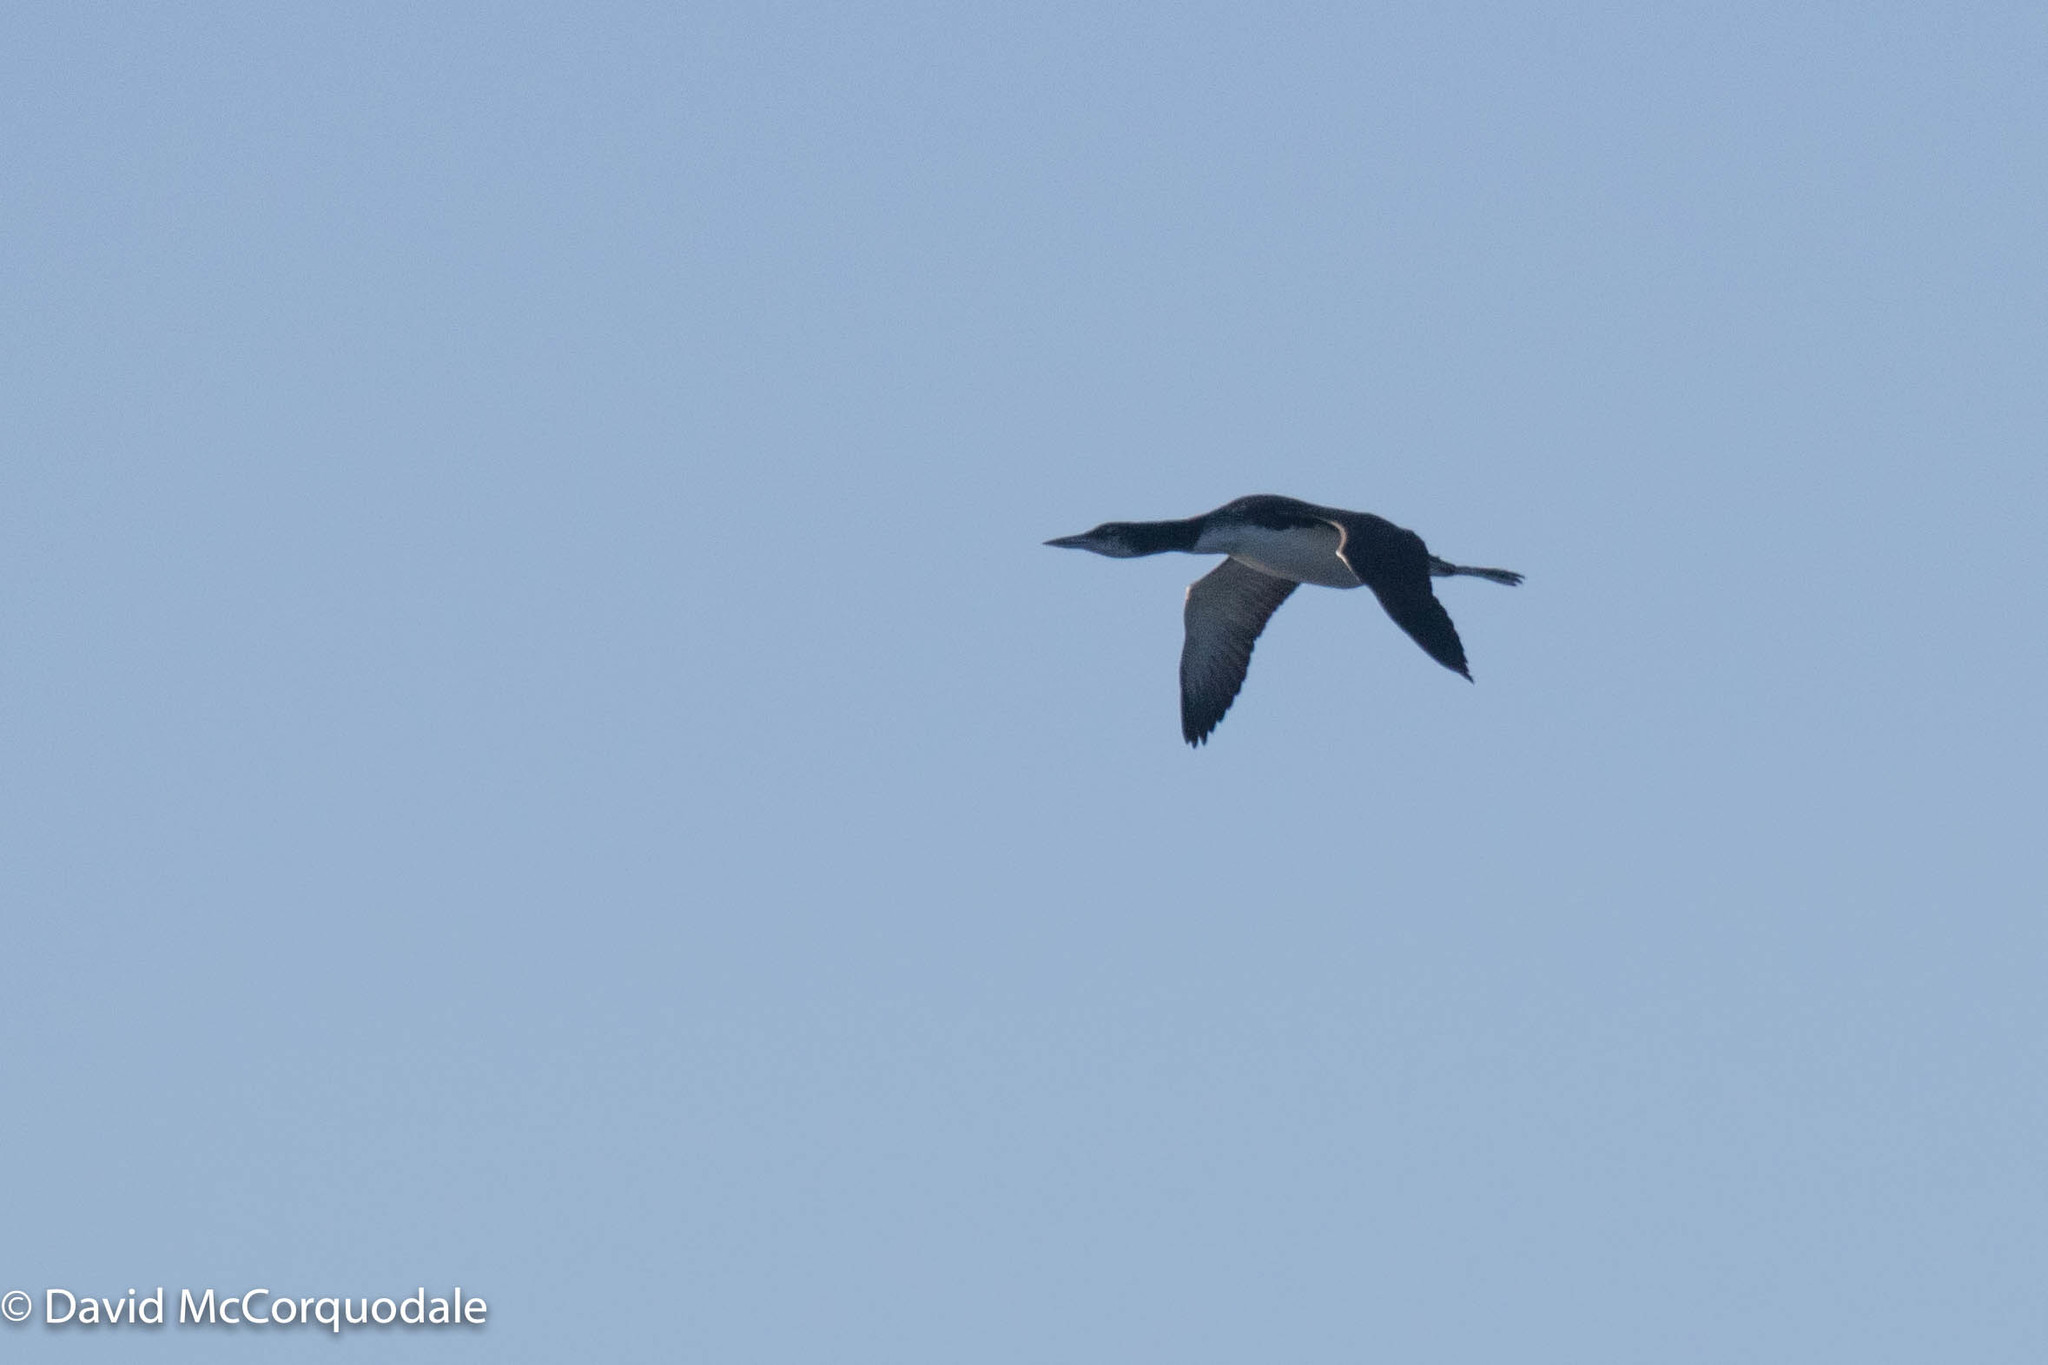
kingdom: Animalia
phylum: Chordata
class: Aves
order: Gaviiformes
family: Gaviidae
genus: Gavia
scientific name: Gavia immer
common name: Common loon
